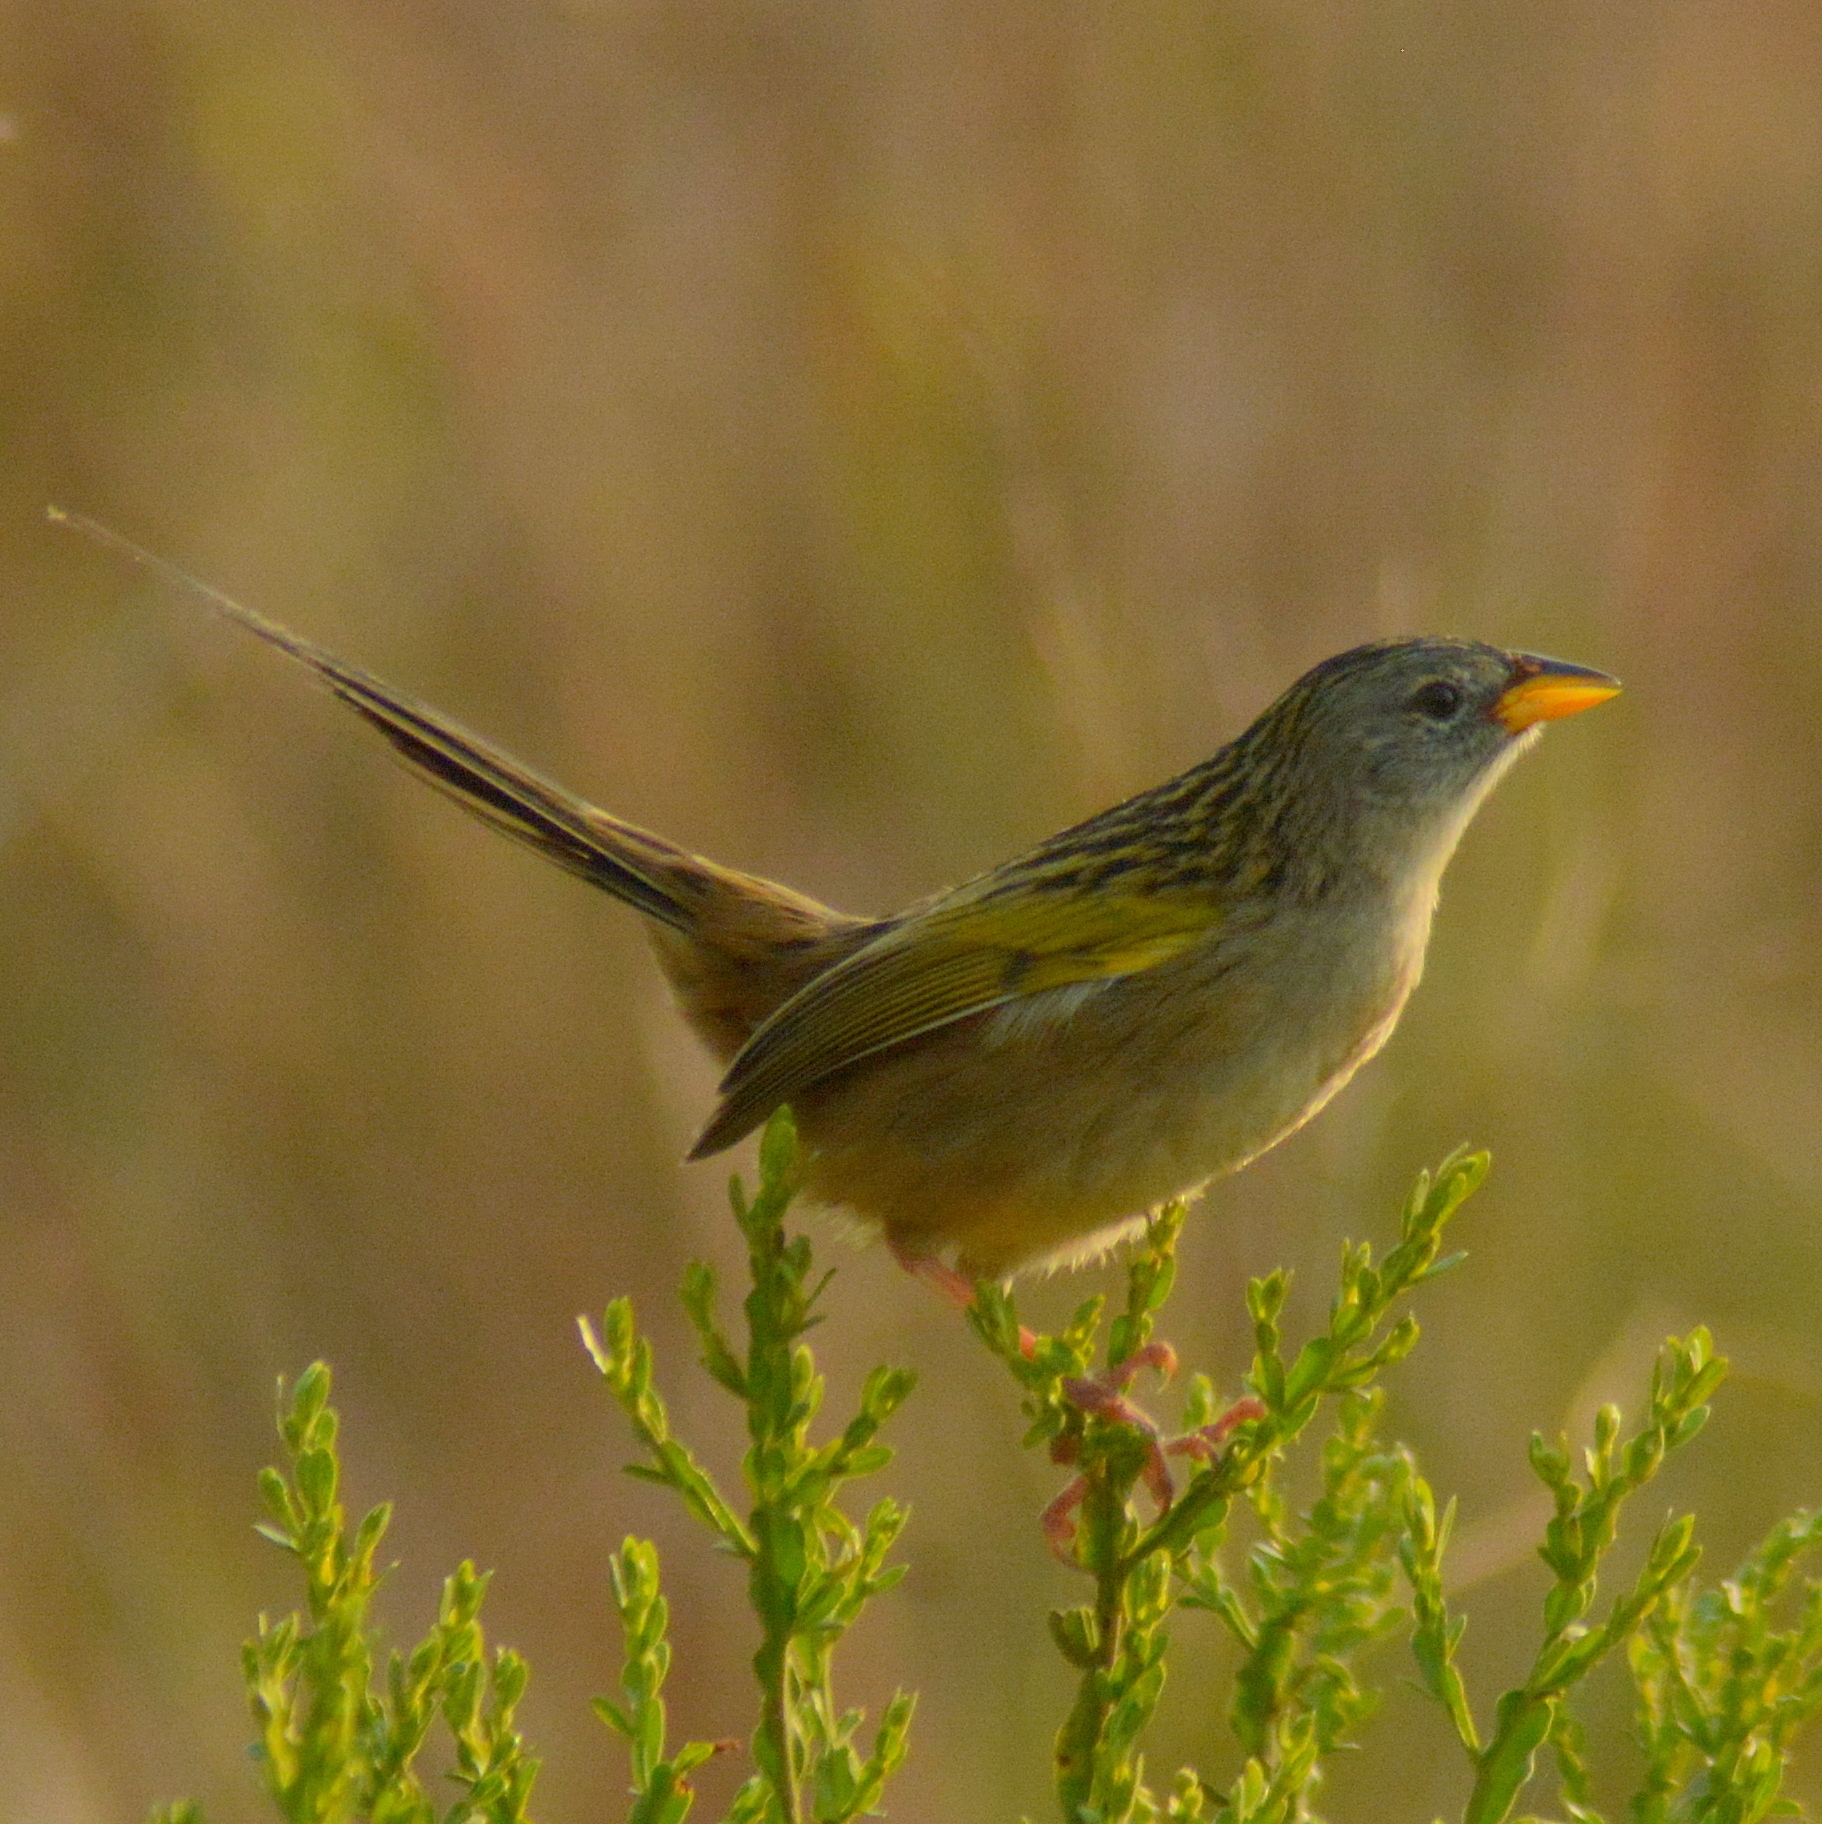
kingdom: Animalia
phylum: Chordata
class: Aves
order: Passeriformes
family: Thraupidae
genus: Emberizoides
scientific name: Emberizoides ypiranganus
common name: Lesser grass finch
